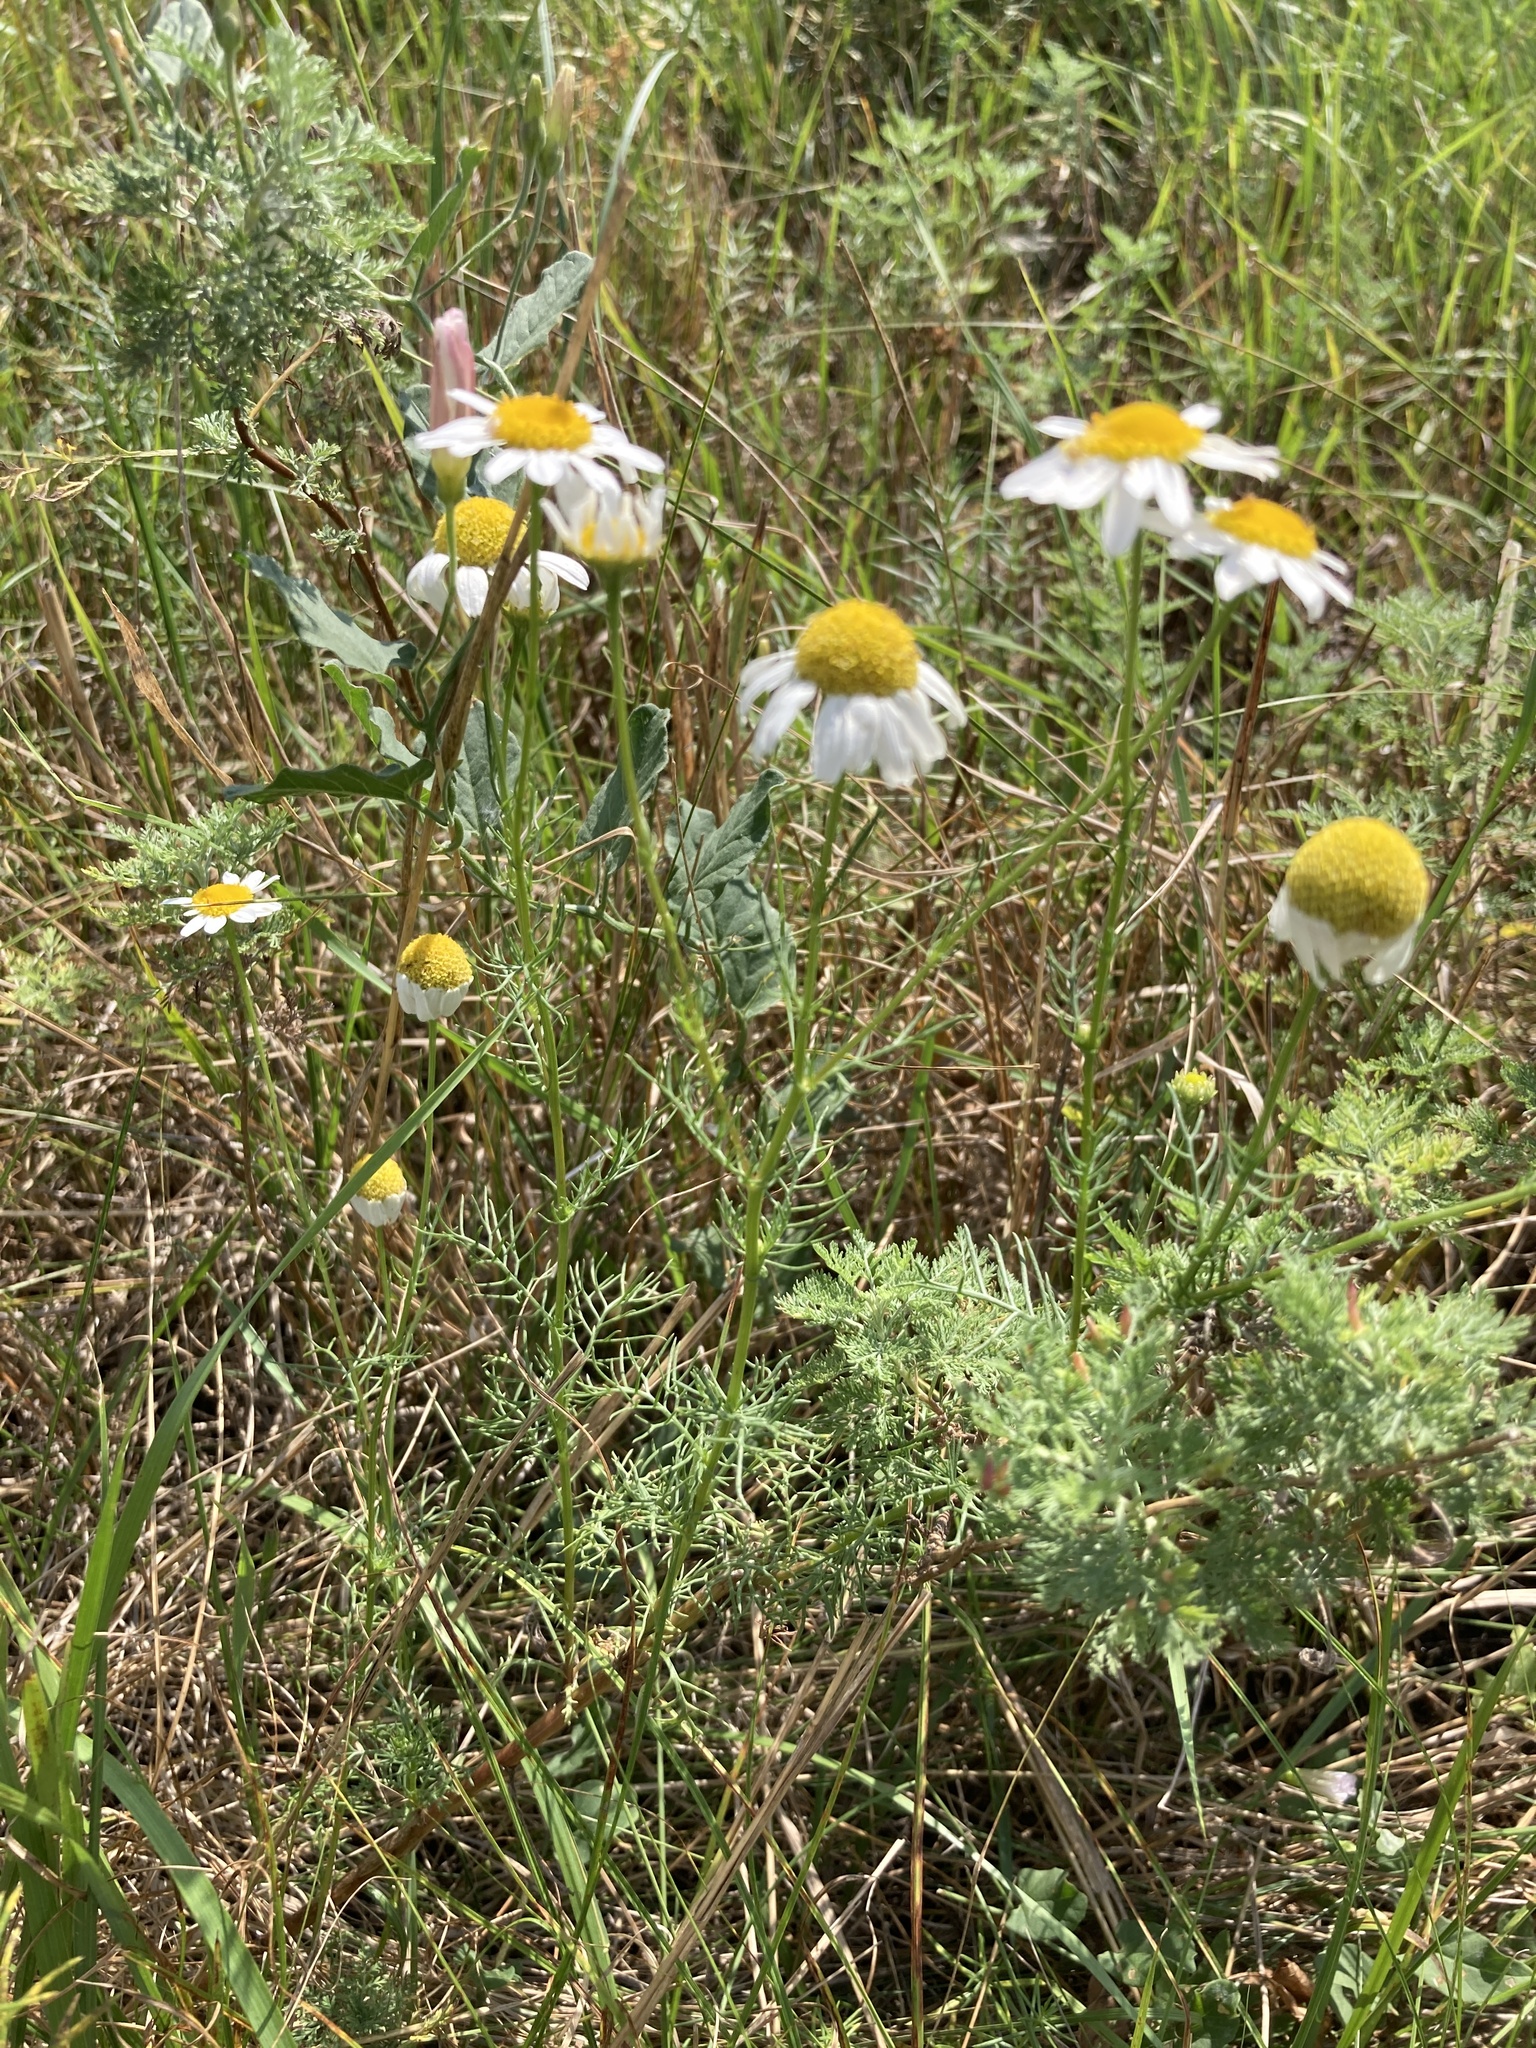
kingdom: Plantae
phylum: Tracheophyta
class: Magnoliopsida
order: Asterales
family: Asteraceae
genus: Tripleurospermum
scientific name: Tripleurospermum inodorum
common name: Scentless mayweed
